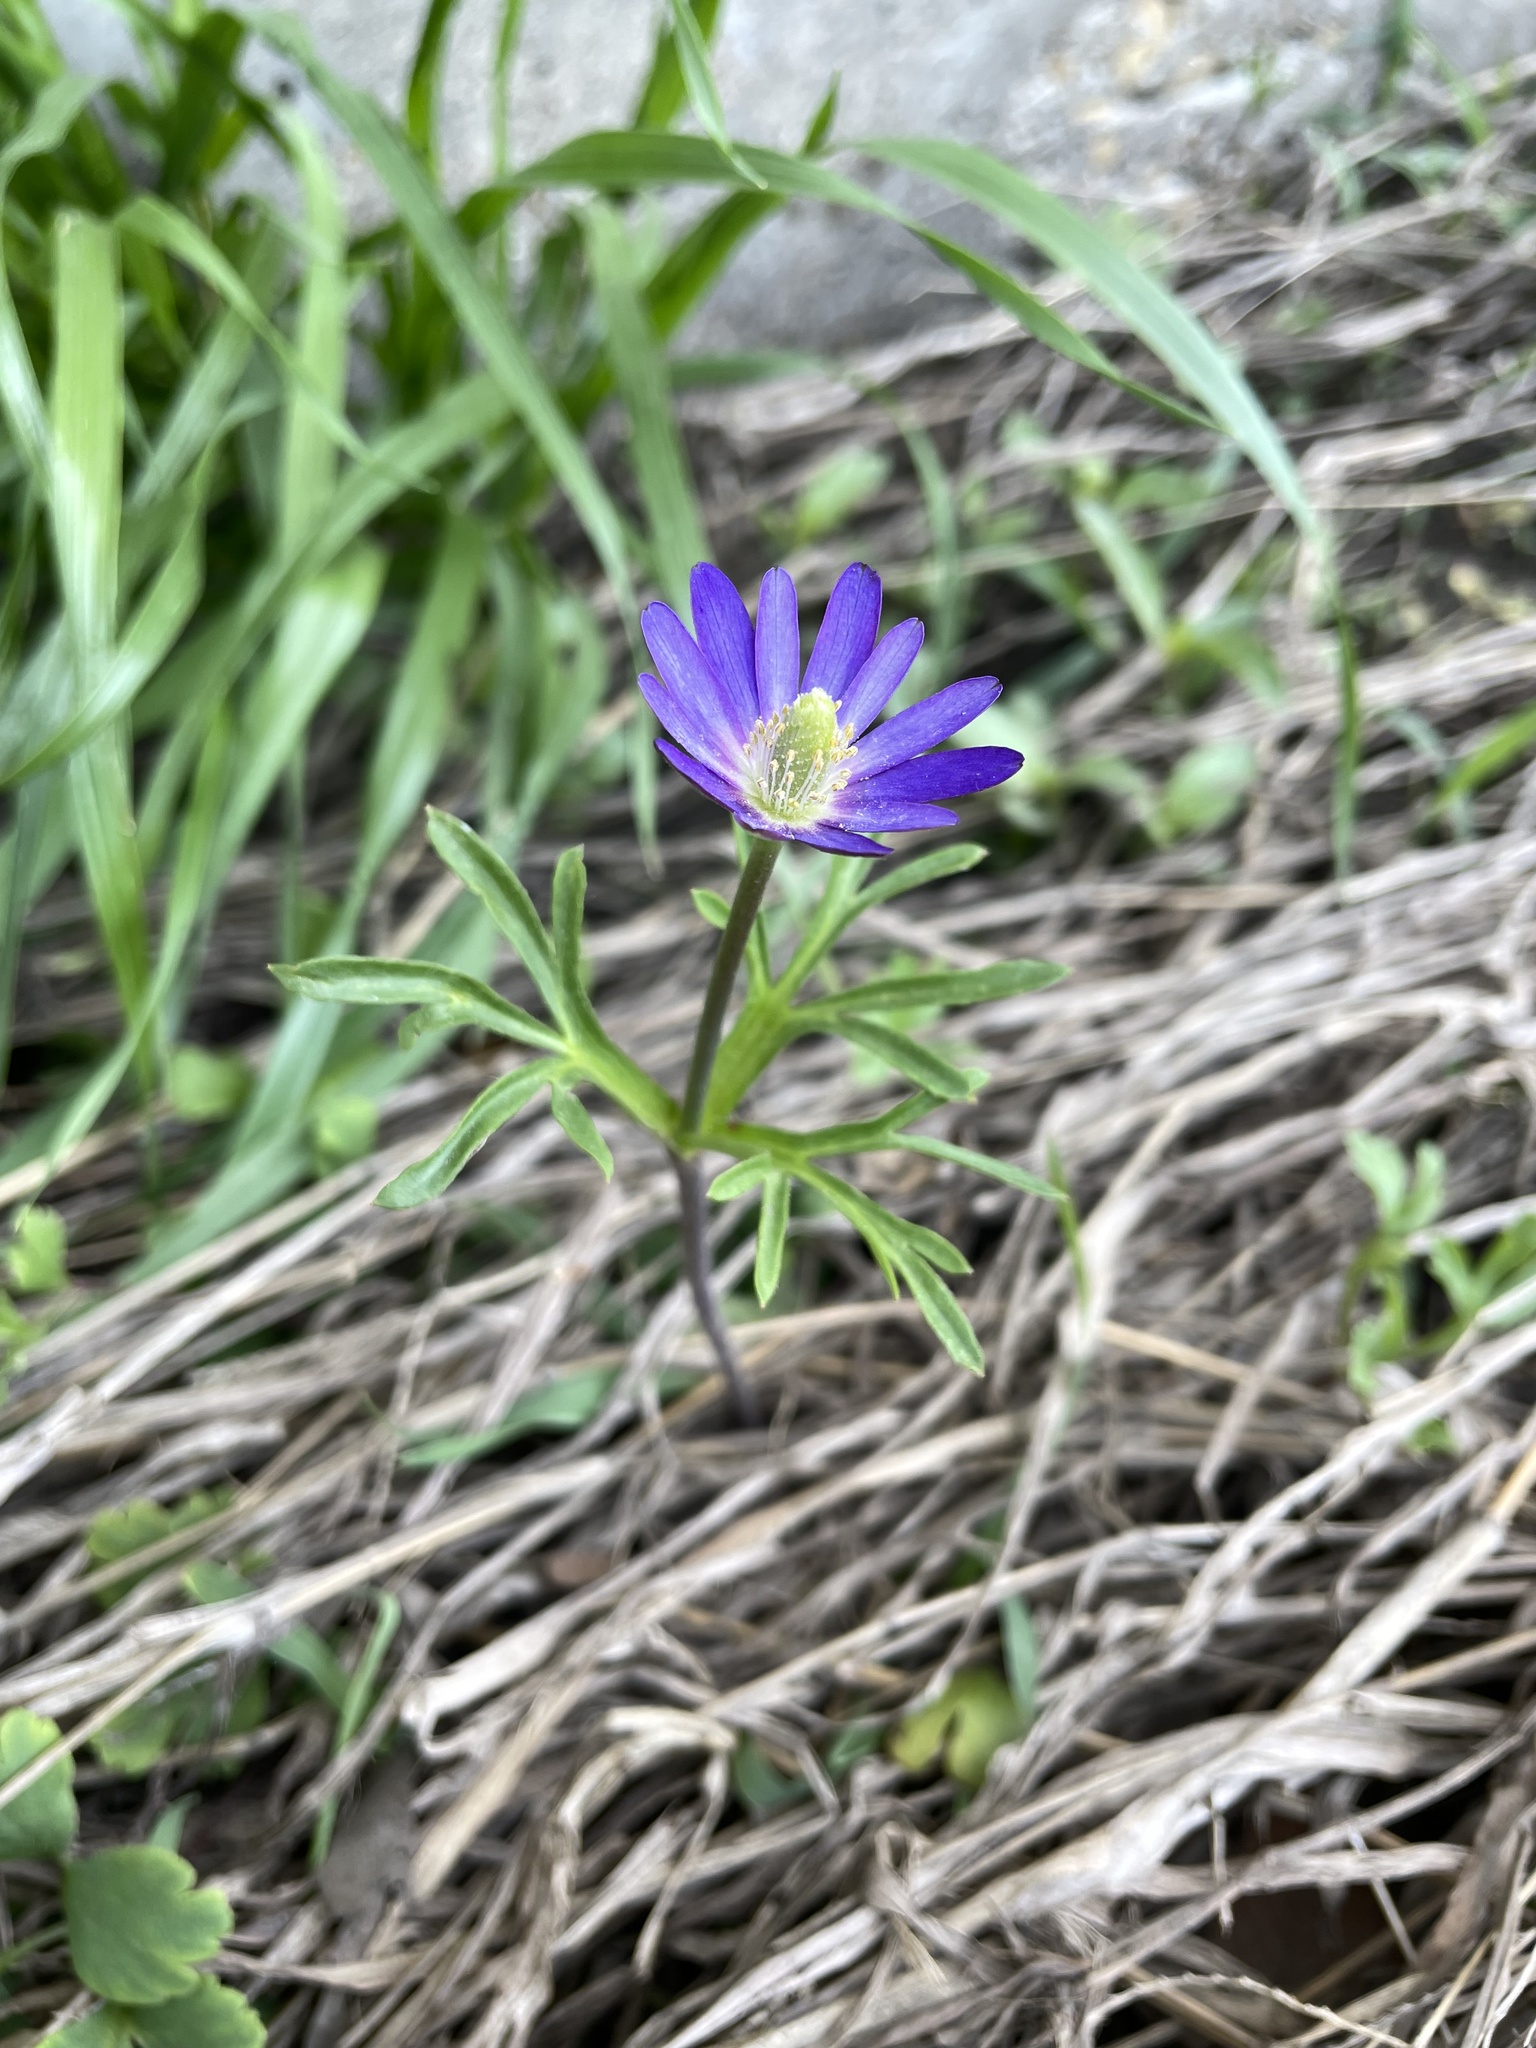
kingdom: Plantae
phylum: Tracheophyta
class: Magnoliopsida
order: Ranunculales
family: Ranunculaceae
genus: Anemone
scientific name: Anemone berlandieri
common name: Ten-petal anemone
